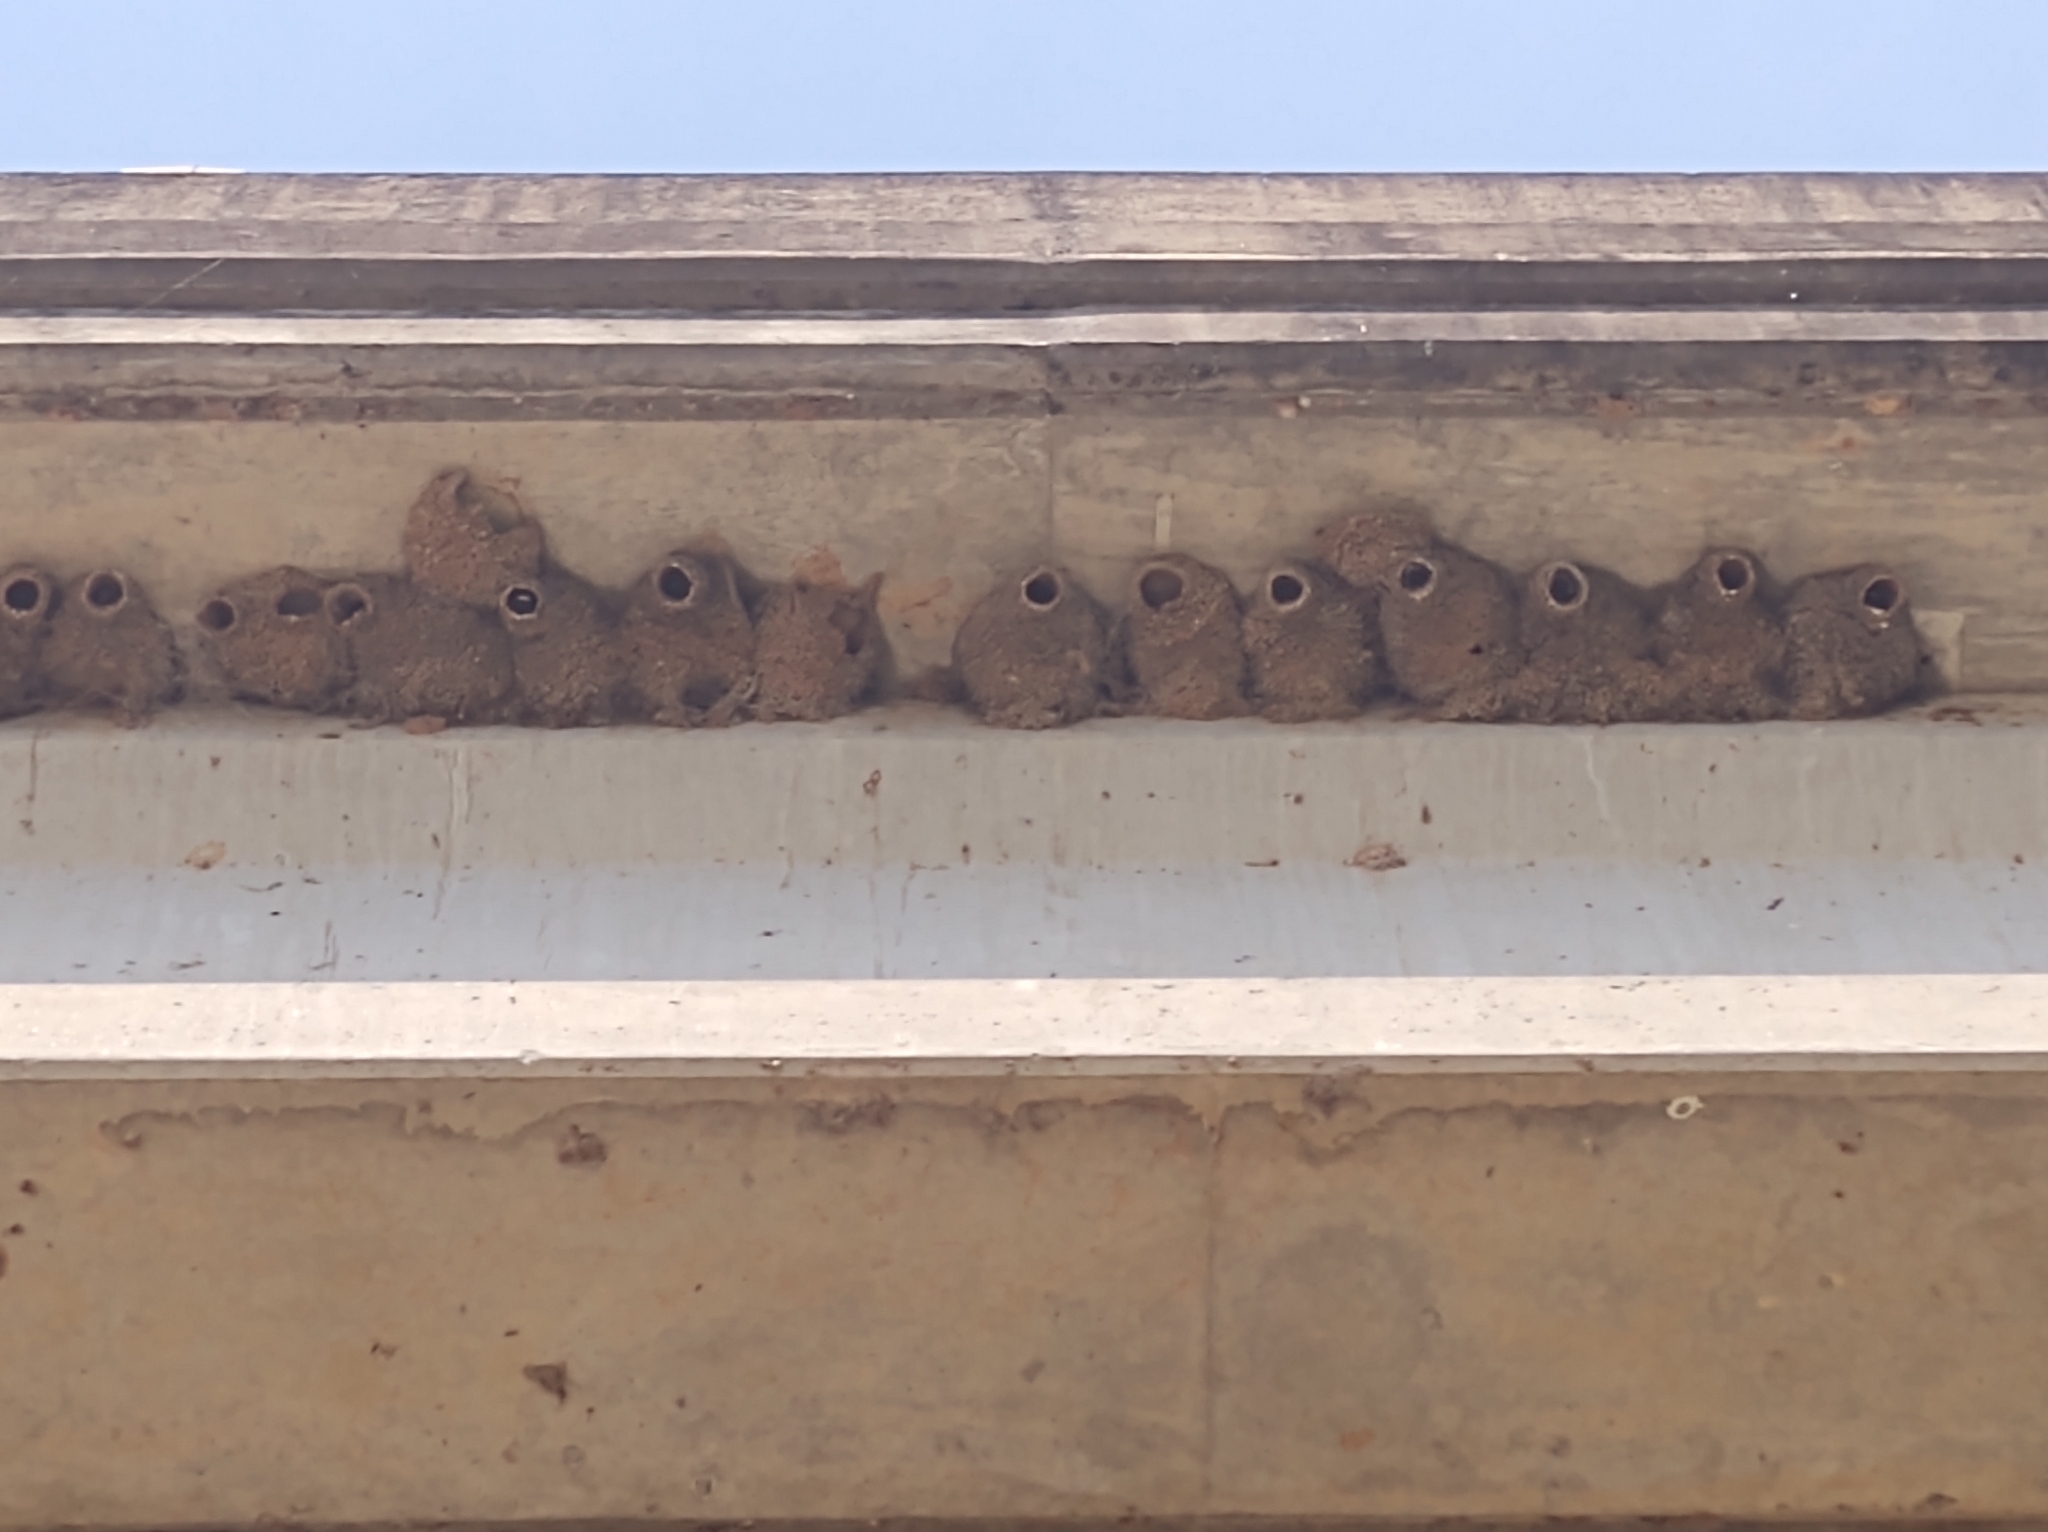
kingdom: Animalia
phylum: Chordata
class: Aves
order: Passeriformes
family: Hirundinidae
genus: Petrochelidon
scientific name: Petrochelidon pyrrhonota
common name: American cliff swallow
